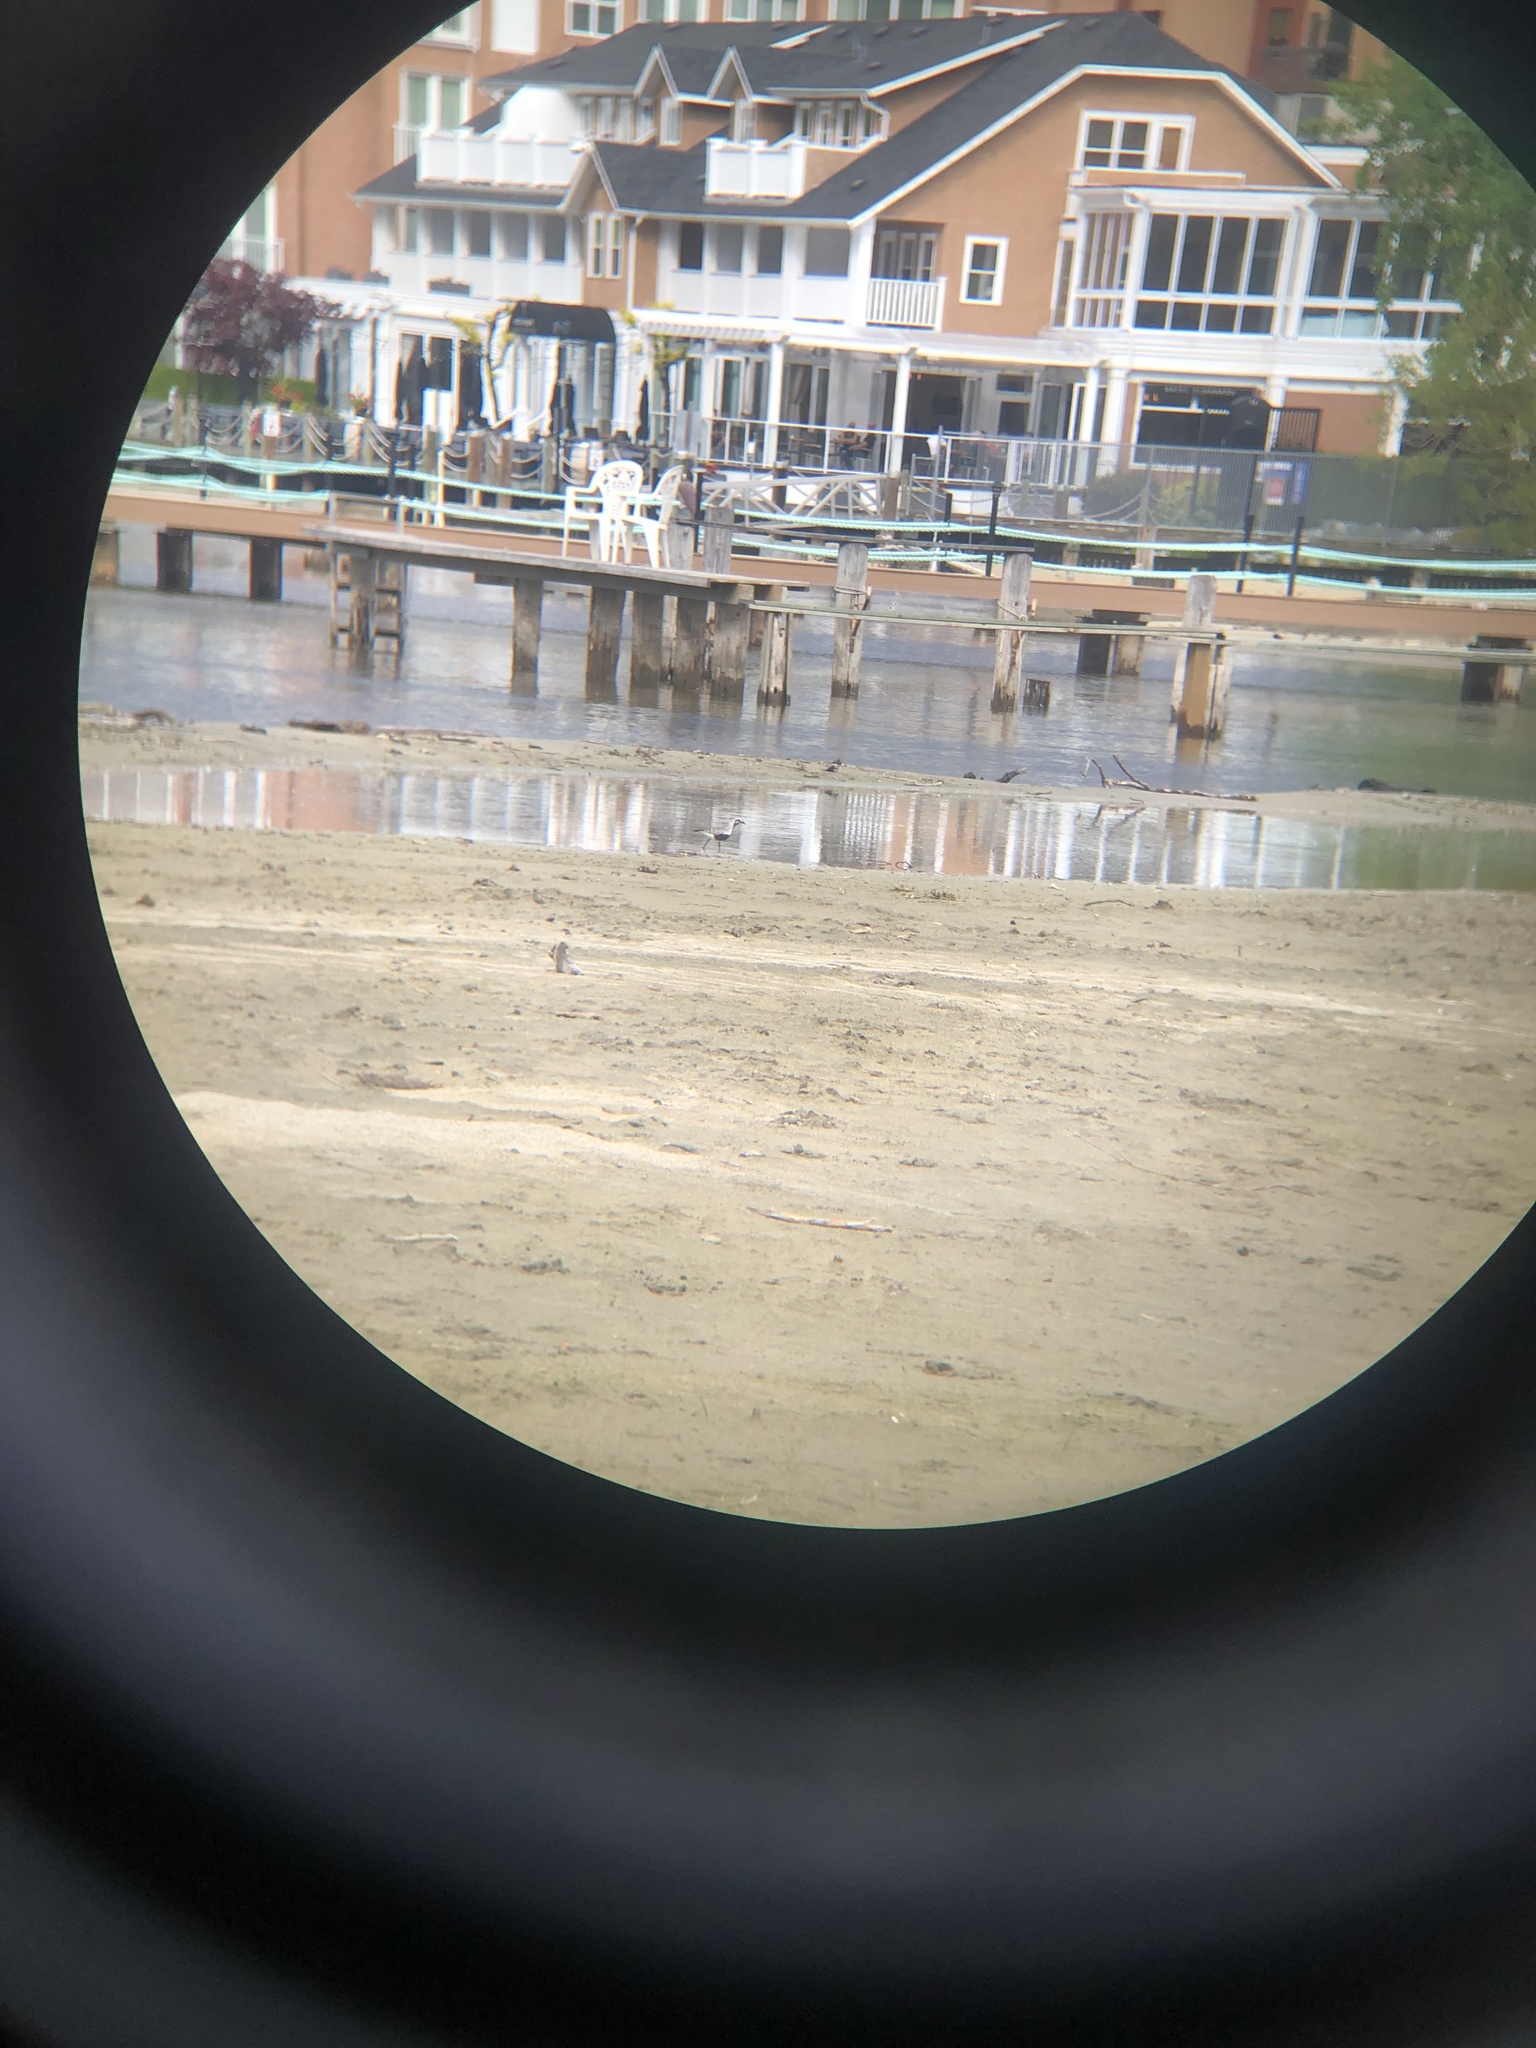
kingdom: Animalia
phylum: Chordata
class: Aves
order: Charadriiformes
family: Charadriidae
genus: Pluvialis
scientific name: Pluvialis squatarola
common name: Grey plover
